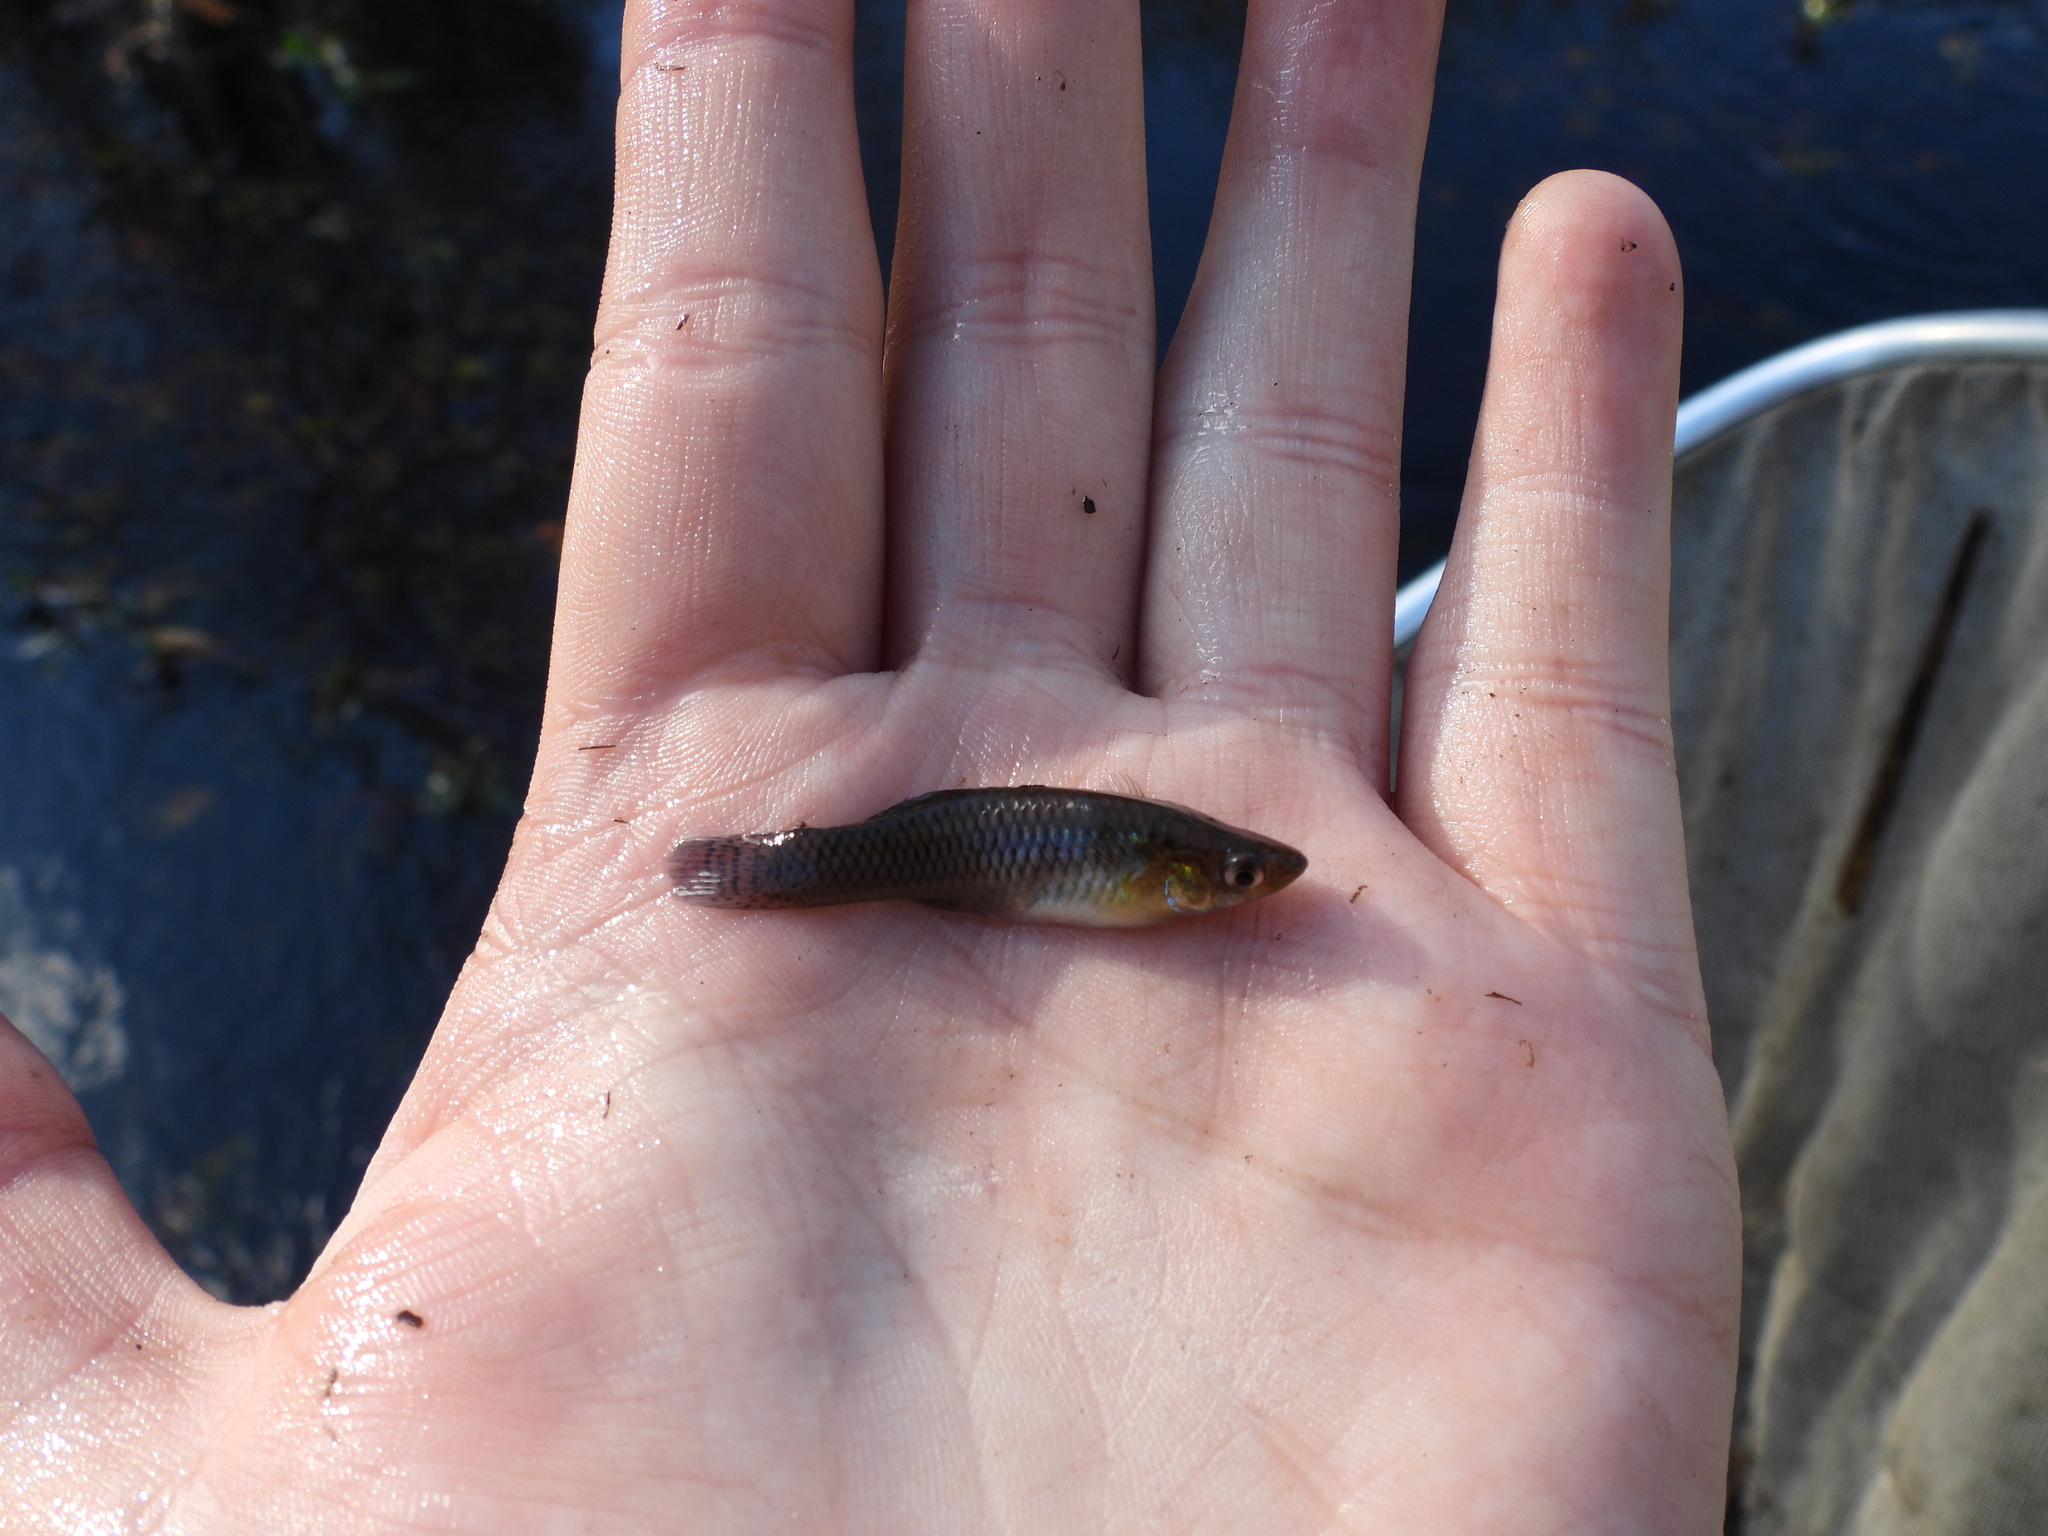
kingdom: Animalia
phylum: Chordata
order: Cyprinodontiformes
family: Poeciliidae
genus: Gambusia
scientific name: Gambusia holbrooki
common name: Eastern mosquitofish
